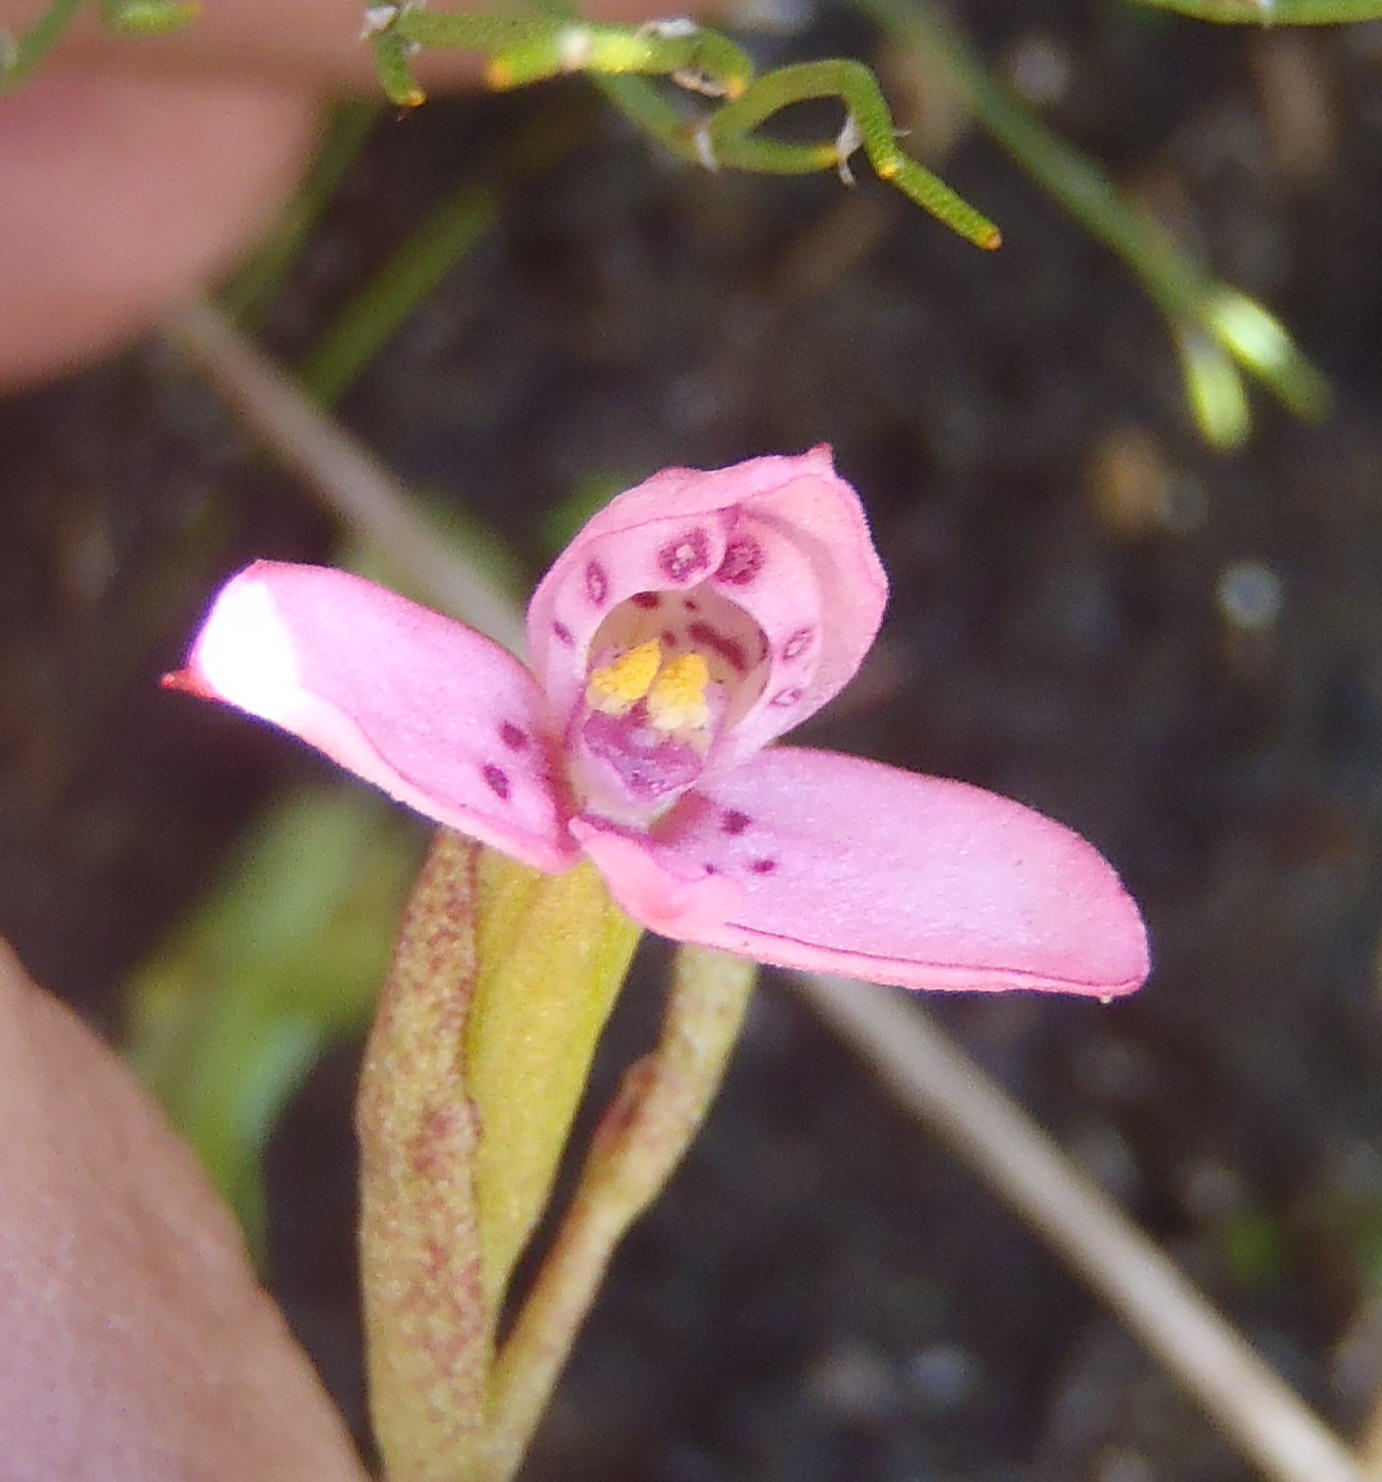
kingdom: Plantae
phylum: Tracheophyta
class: Liliopsida
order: Asparagales
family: Orchidaceae
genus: Disa
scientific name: Disa vaginata
